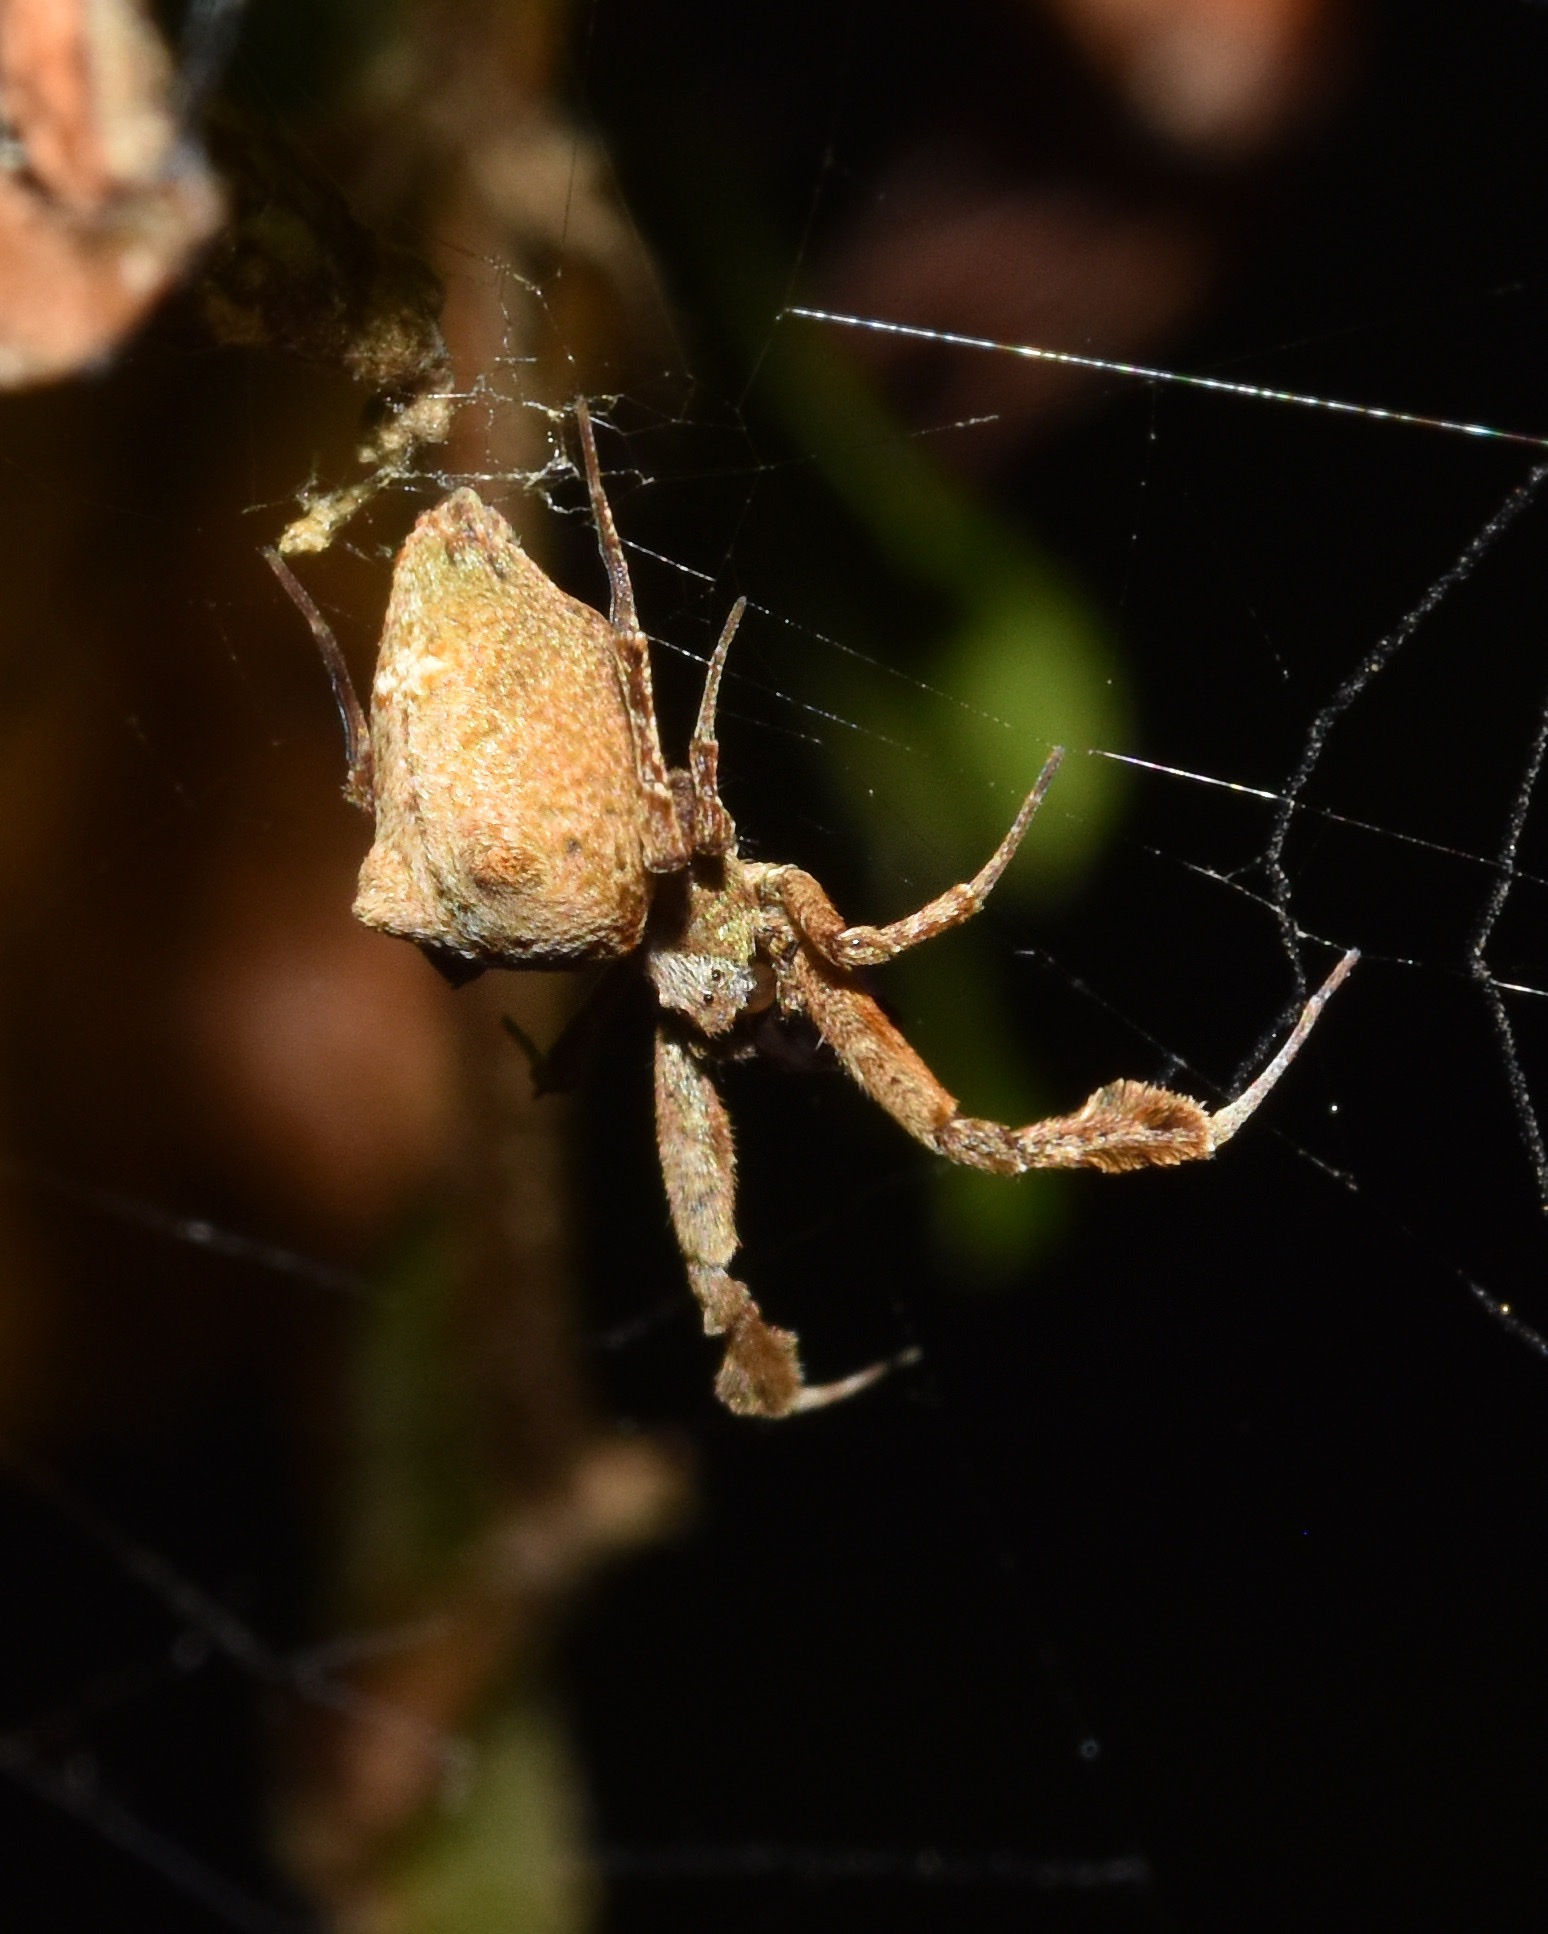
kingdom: Animalia
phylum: Arthropoda
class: Arachnida
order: Araneae
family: Uloboridae
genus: Uloborus
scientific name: Uloborus plumipes
